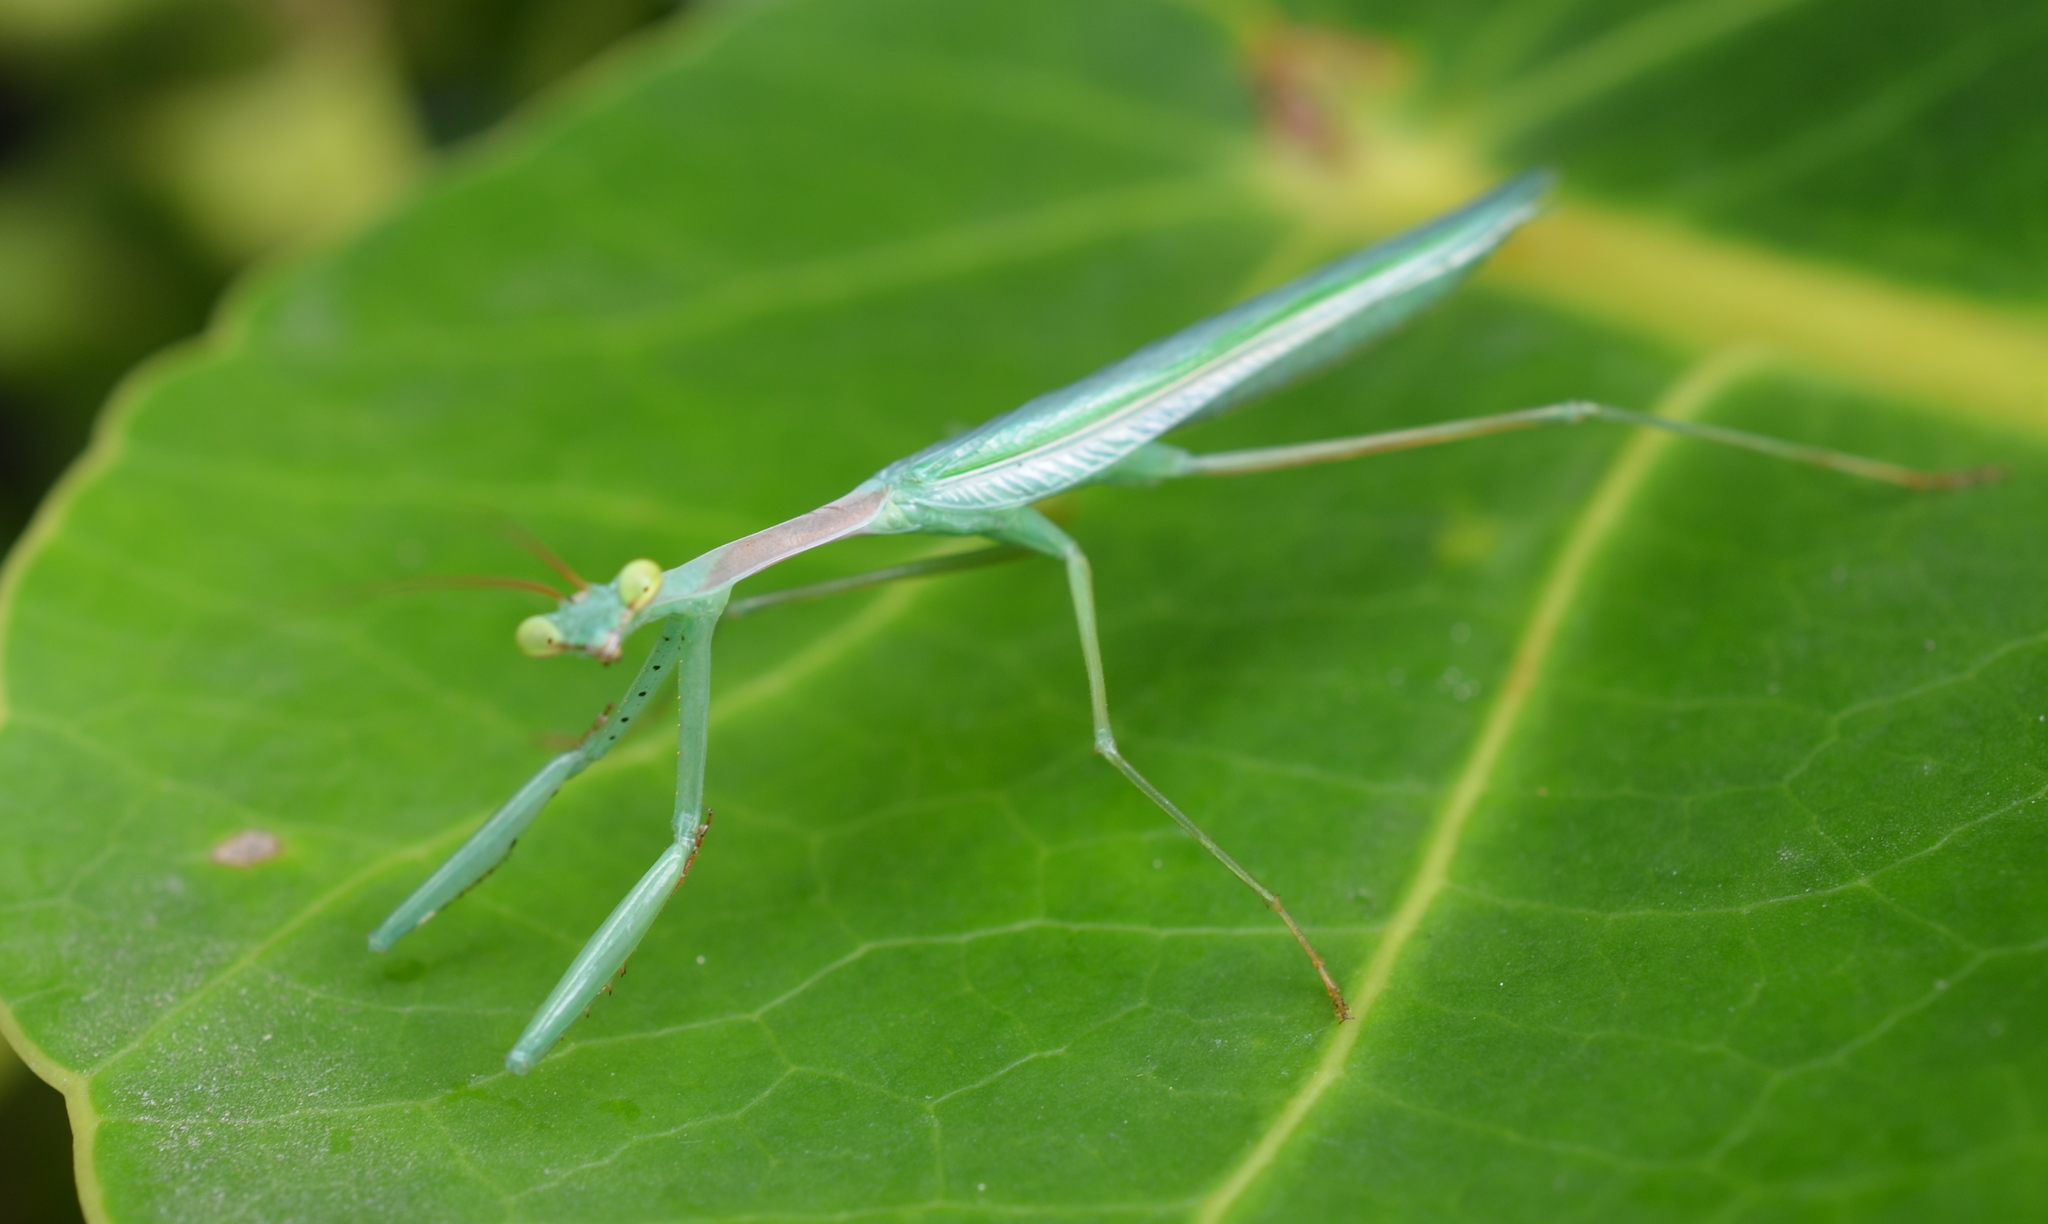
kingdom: Animalia
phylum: Arthropoda
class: Insecta
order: Mantodea
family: Miomantidae
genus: Miomantis
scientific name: Miomantis caffra
